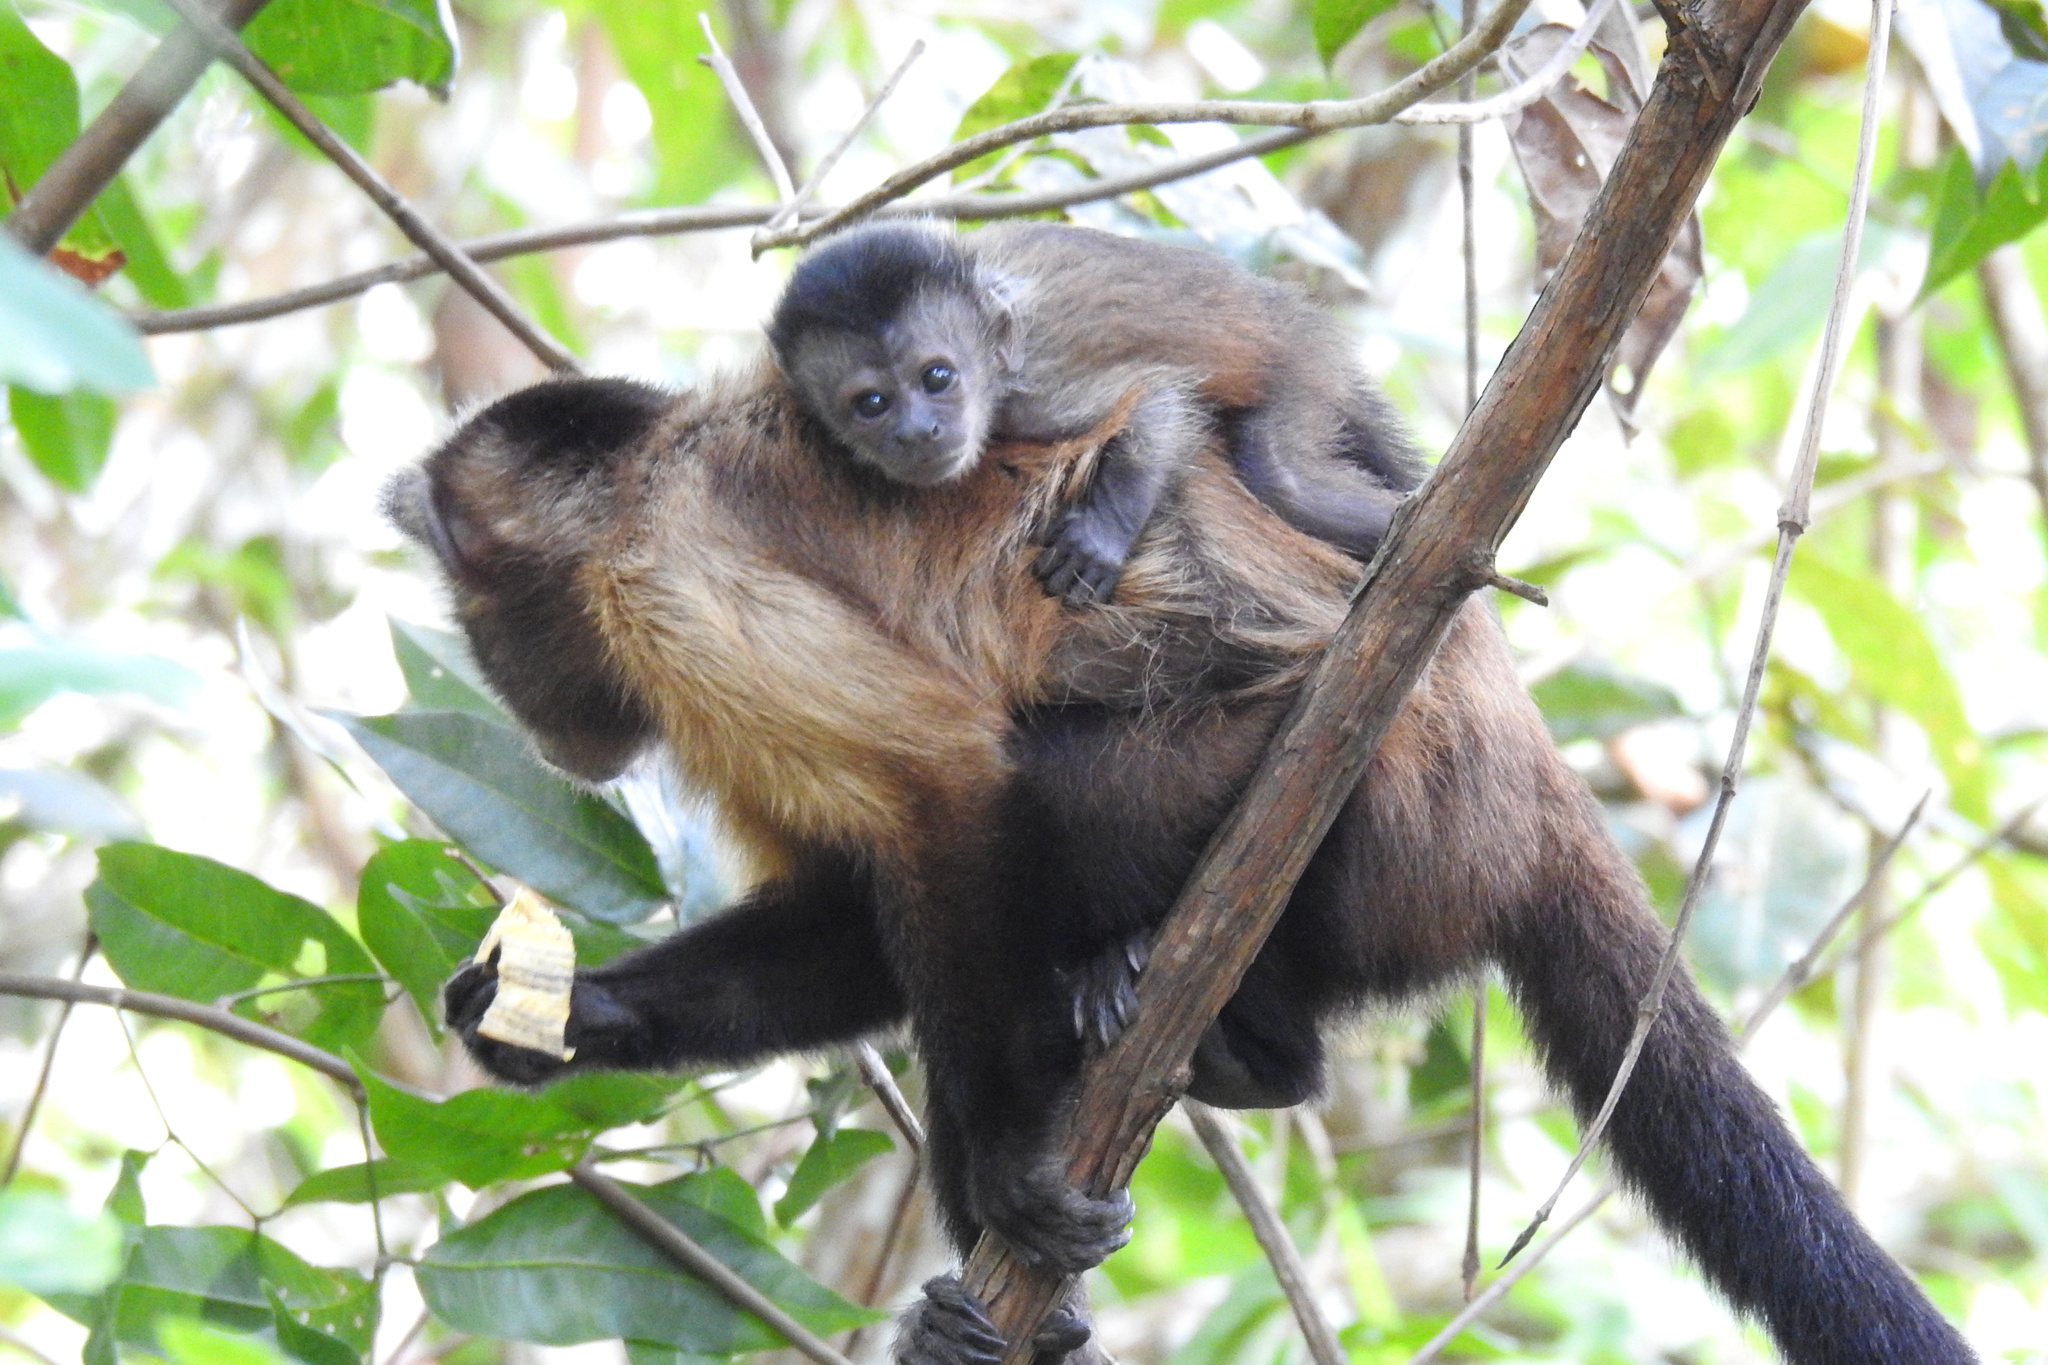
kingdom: Animalia
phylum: Chordata
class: Mammalia
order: Primates
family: Cebidae
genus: Sapajus
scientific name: Sapajus apella
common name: Tufted capuchin
